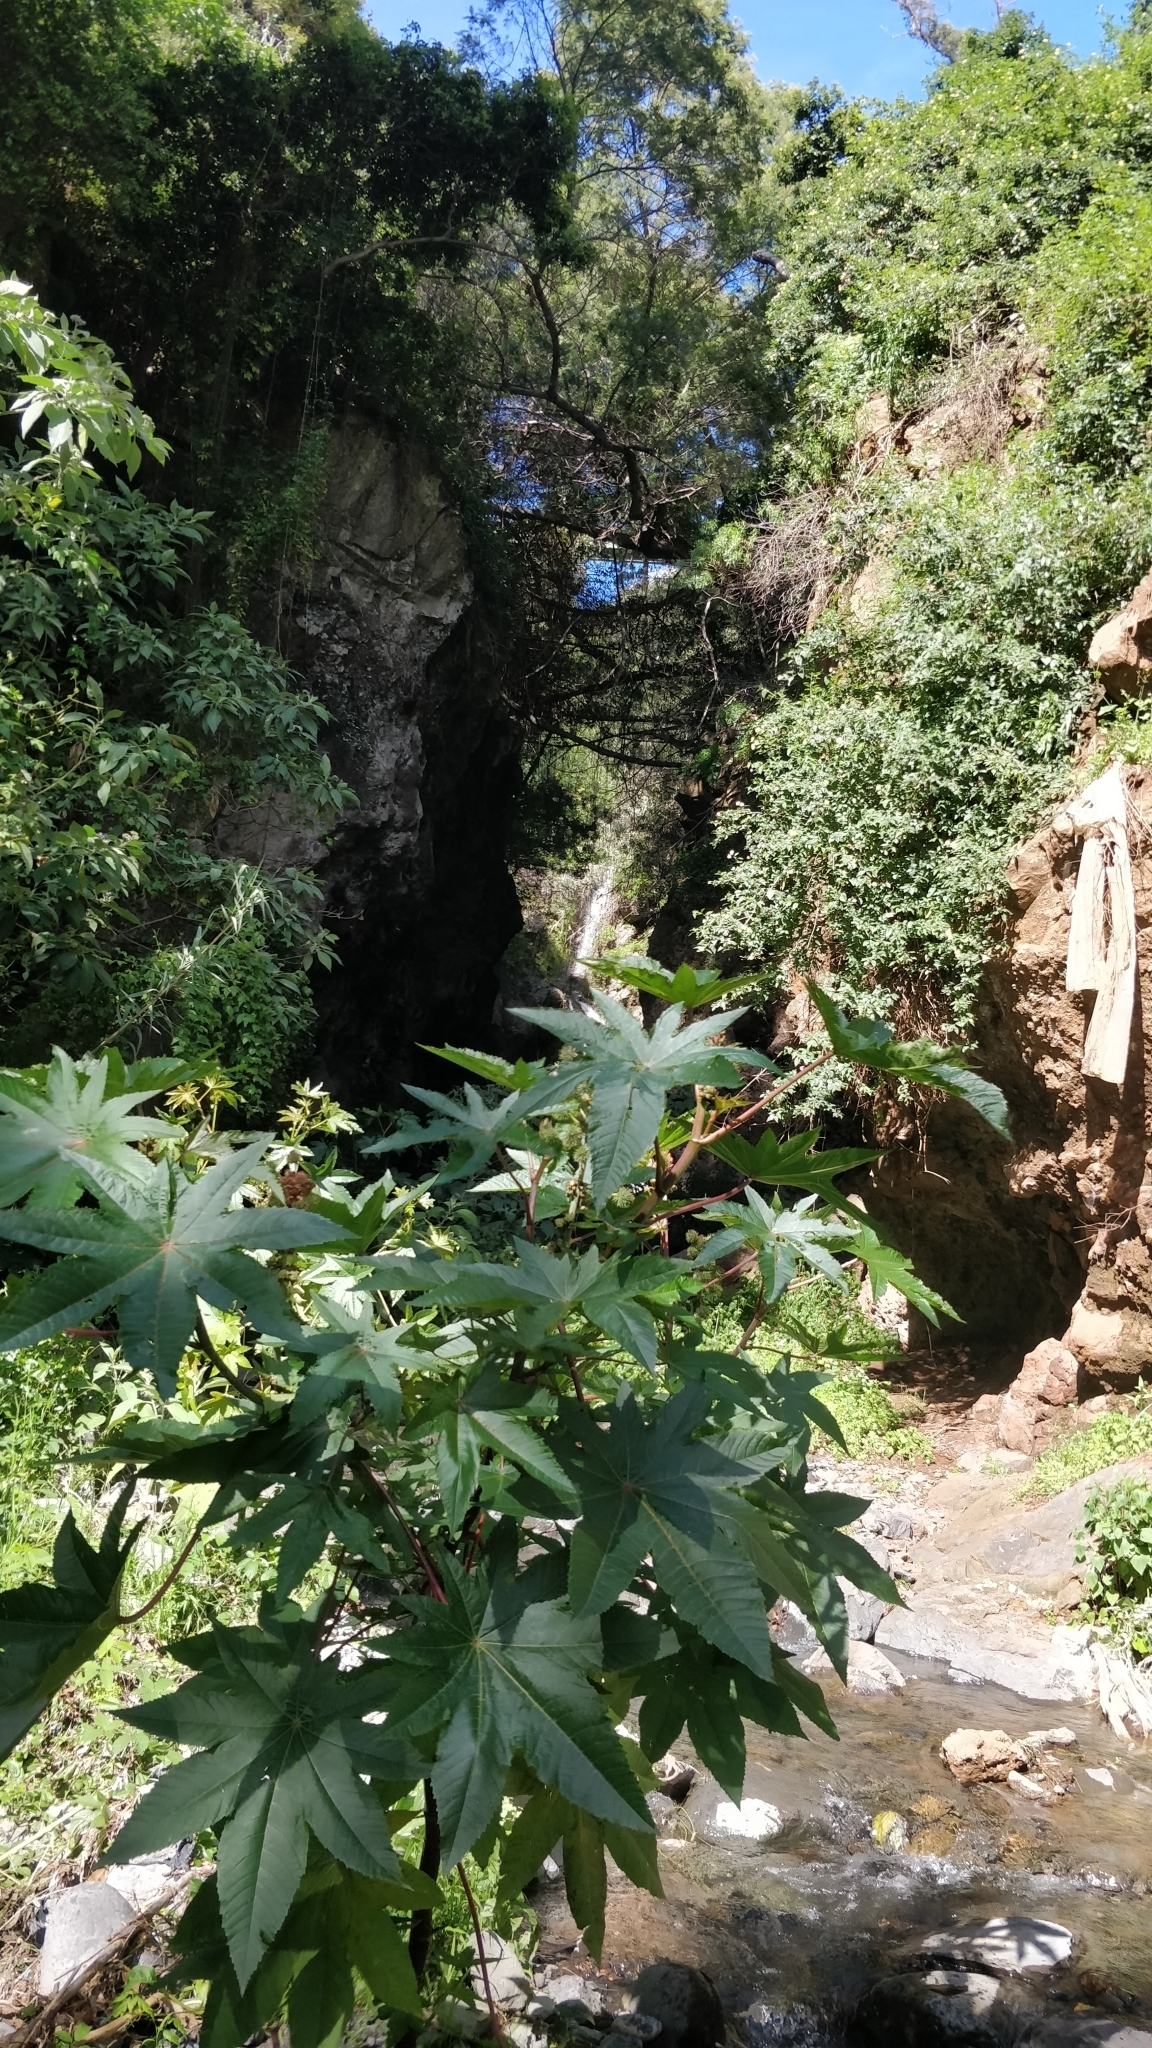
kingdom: Plantae
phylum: Tracheophyta
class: Magnoliopsida
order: Malpighiales
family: Euphorbiaceae
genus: Ricinus
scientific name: Ricinus communis
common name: Castor-oil-plant
